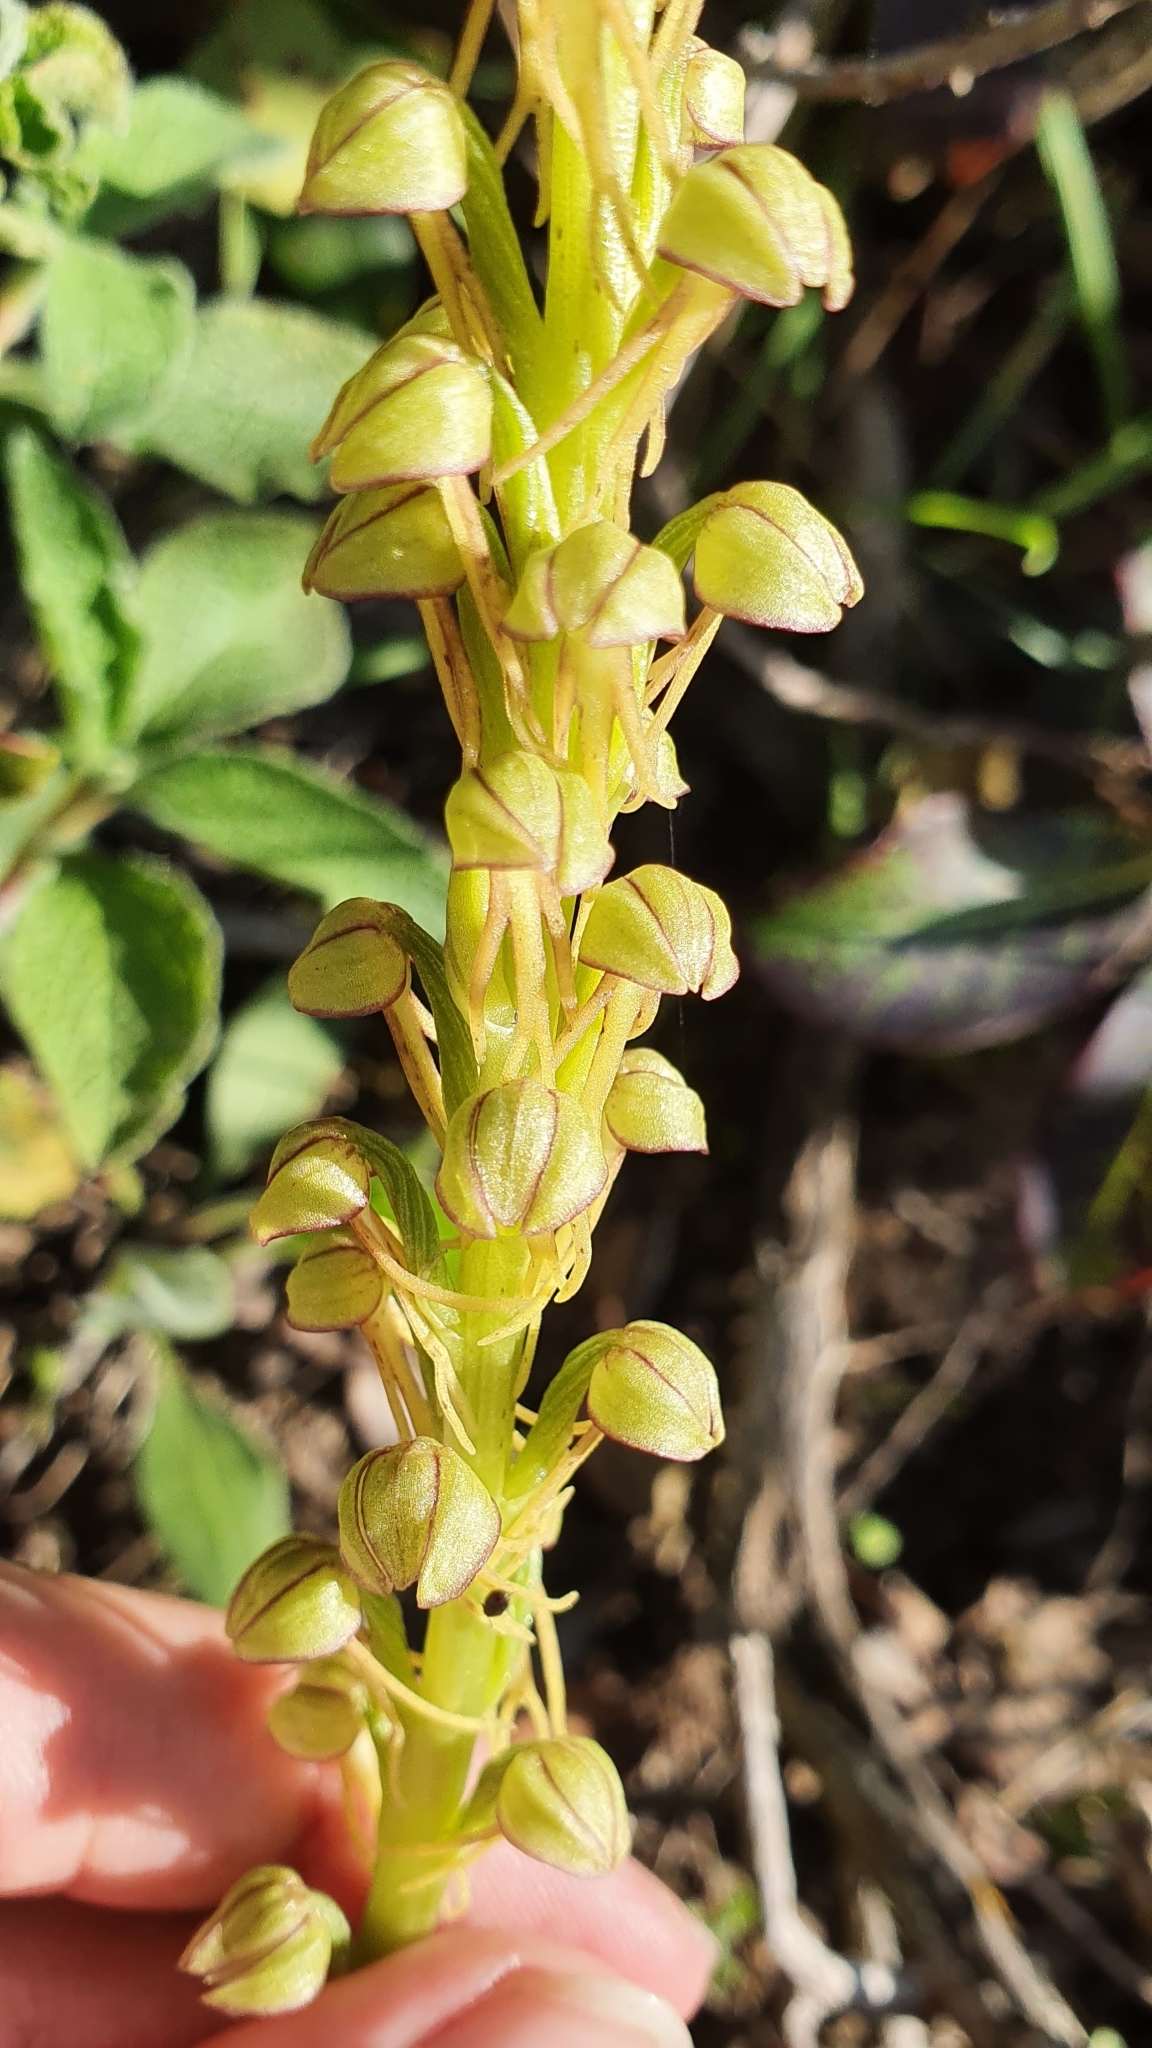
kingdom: Plantae
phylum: Tracheophyta
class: Liliopsida
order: Asparagales
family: Orchidaceae
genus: Orchis
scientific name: Orchis anthropophora
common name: Man orchid
